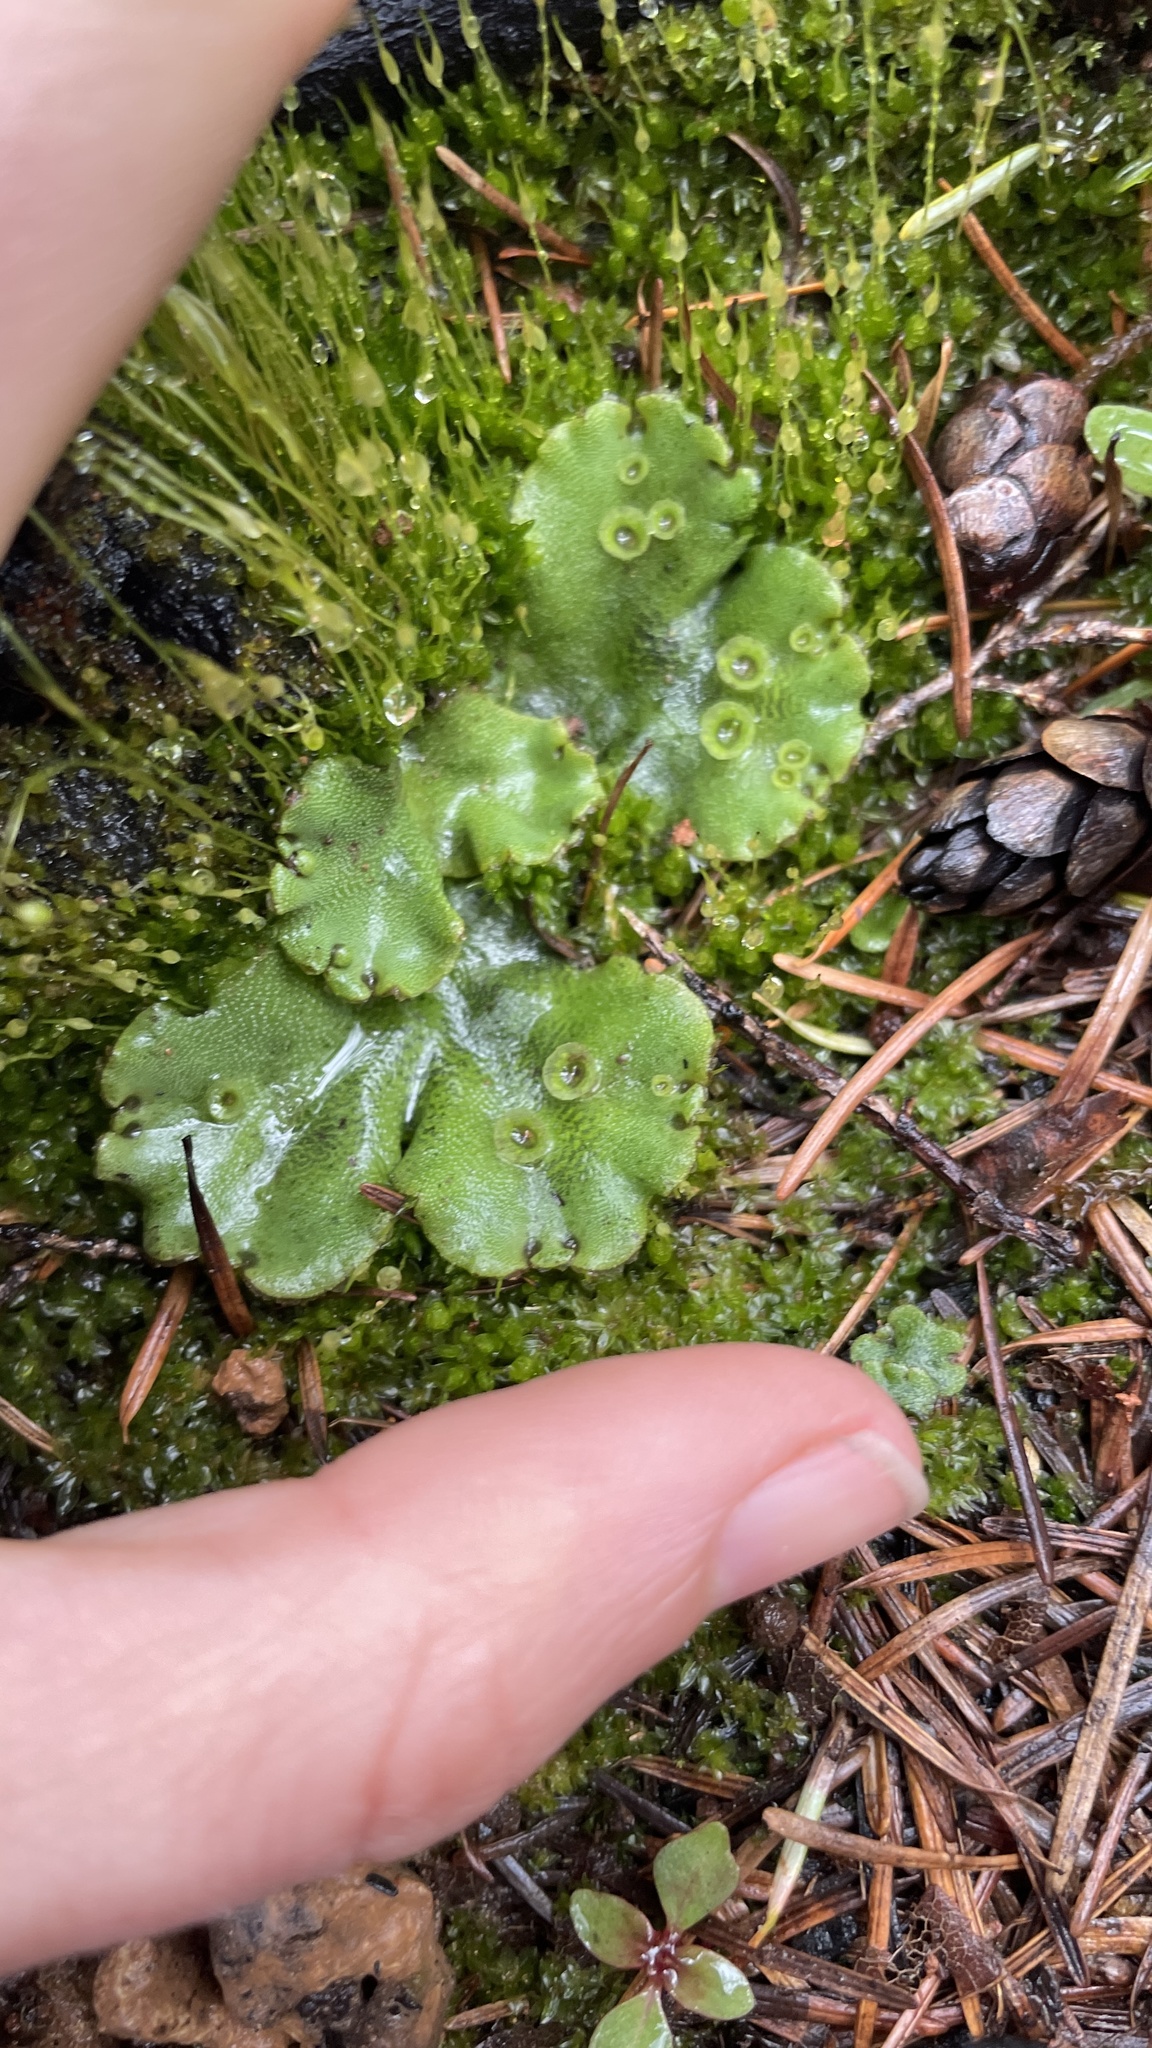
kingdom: Plantae
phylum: Marchantiophyta
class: Marchantiopsida
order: Marchantiales
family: Marchantiaceae
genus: Marchantia
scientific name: Marchantia polymorpha
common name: Common liverwort
